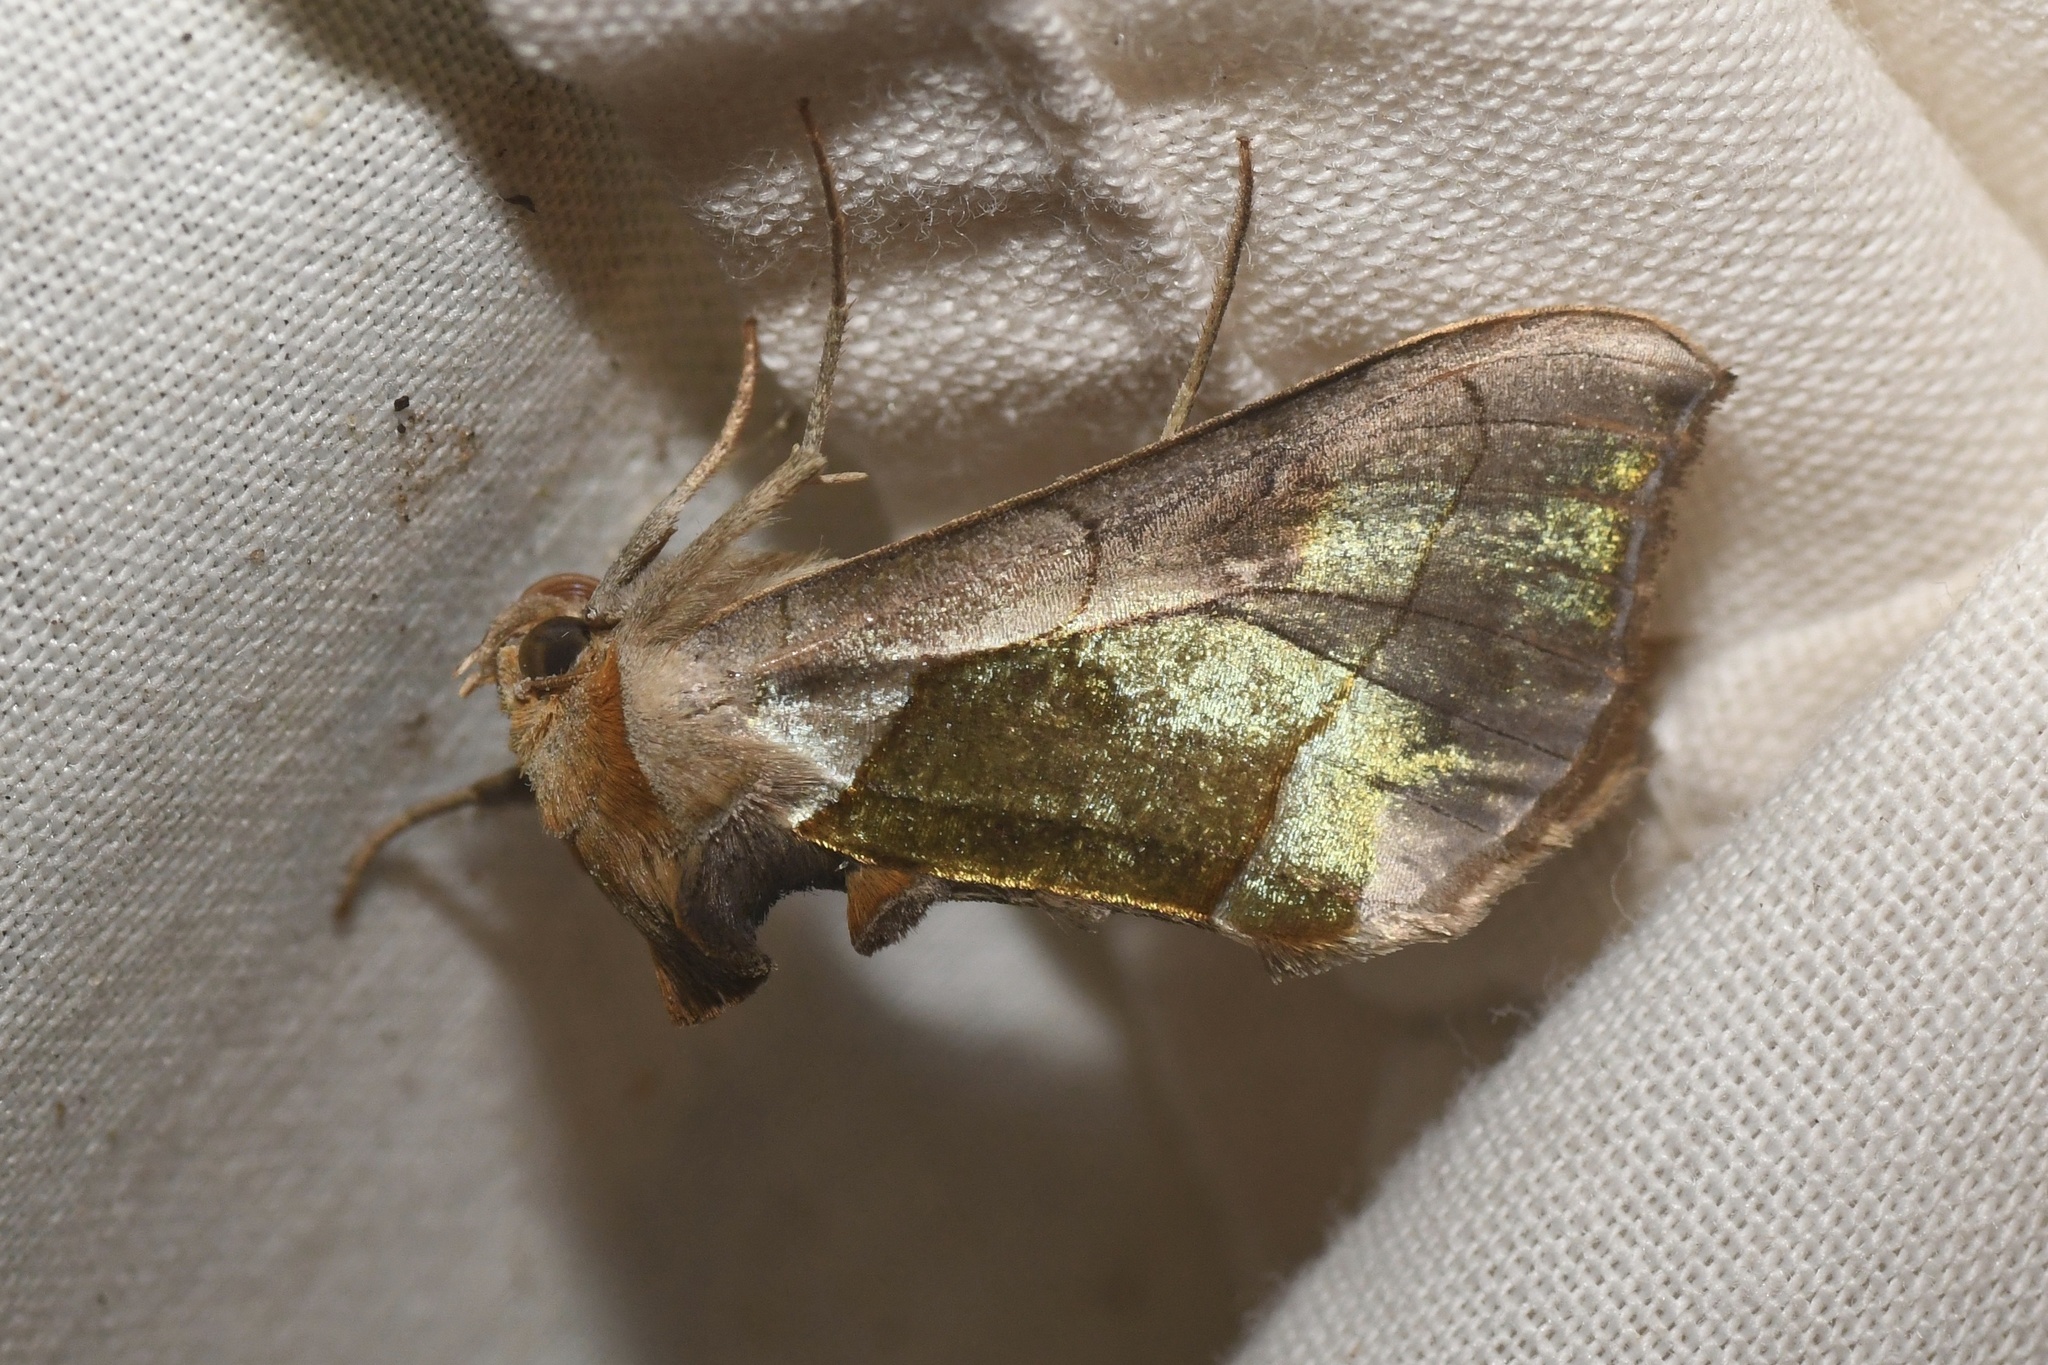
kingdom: Animalia
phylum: Arthropoda
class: Insecta
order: Lepidoptera
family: Noctuidae
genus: Diachrysia
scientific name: Diachrysia balluca
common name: Green-patched looper moth
